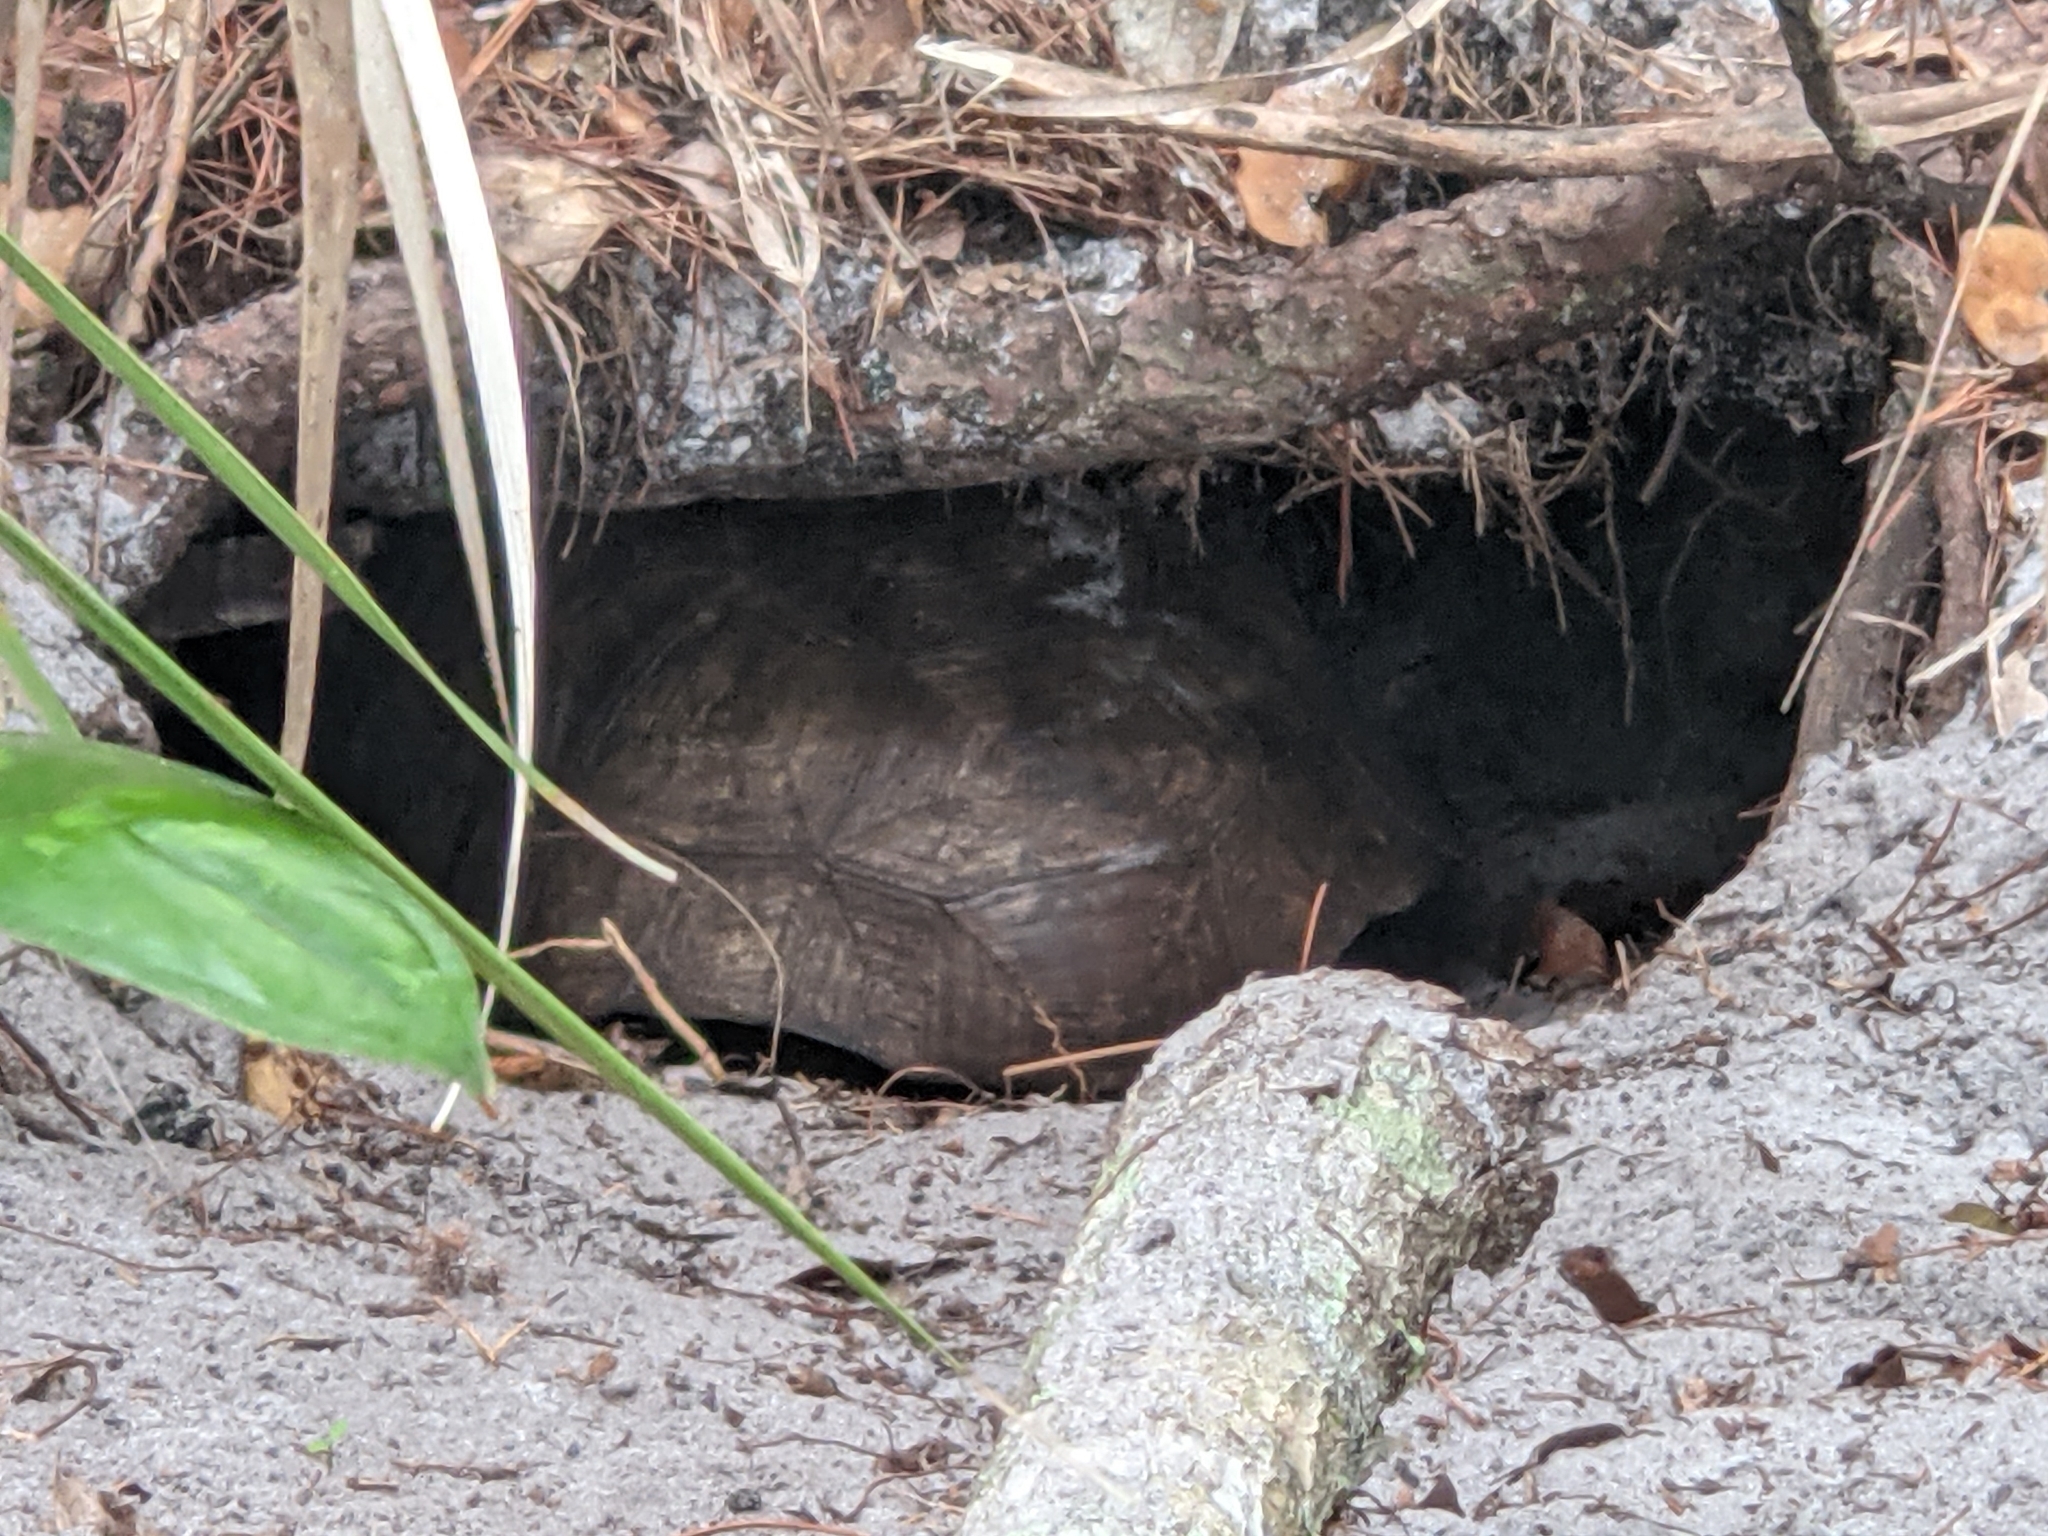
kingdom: Animalia
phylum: Chordata
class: Testudines
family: Testudinidae
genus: Gopherus
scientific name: Gopherus polyphemus
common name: Florida gopher tortoise
